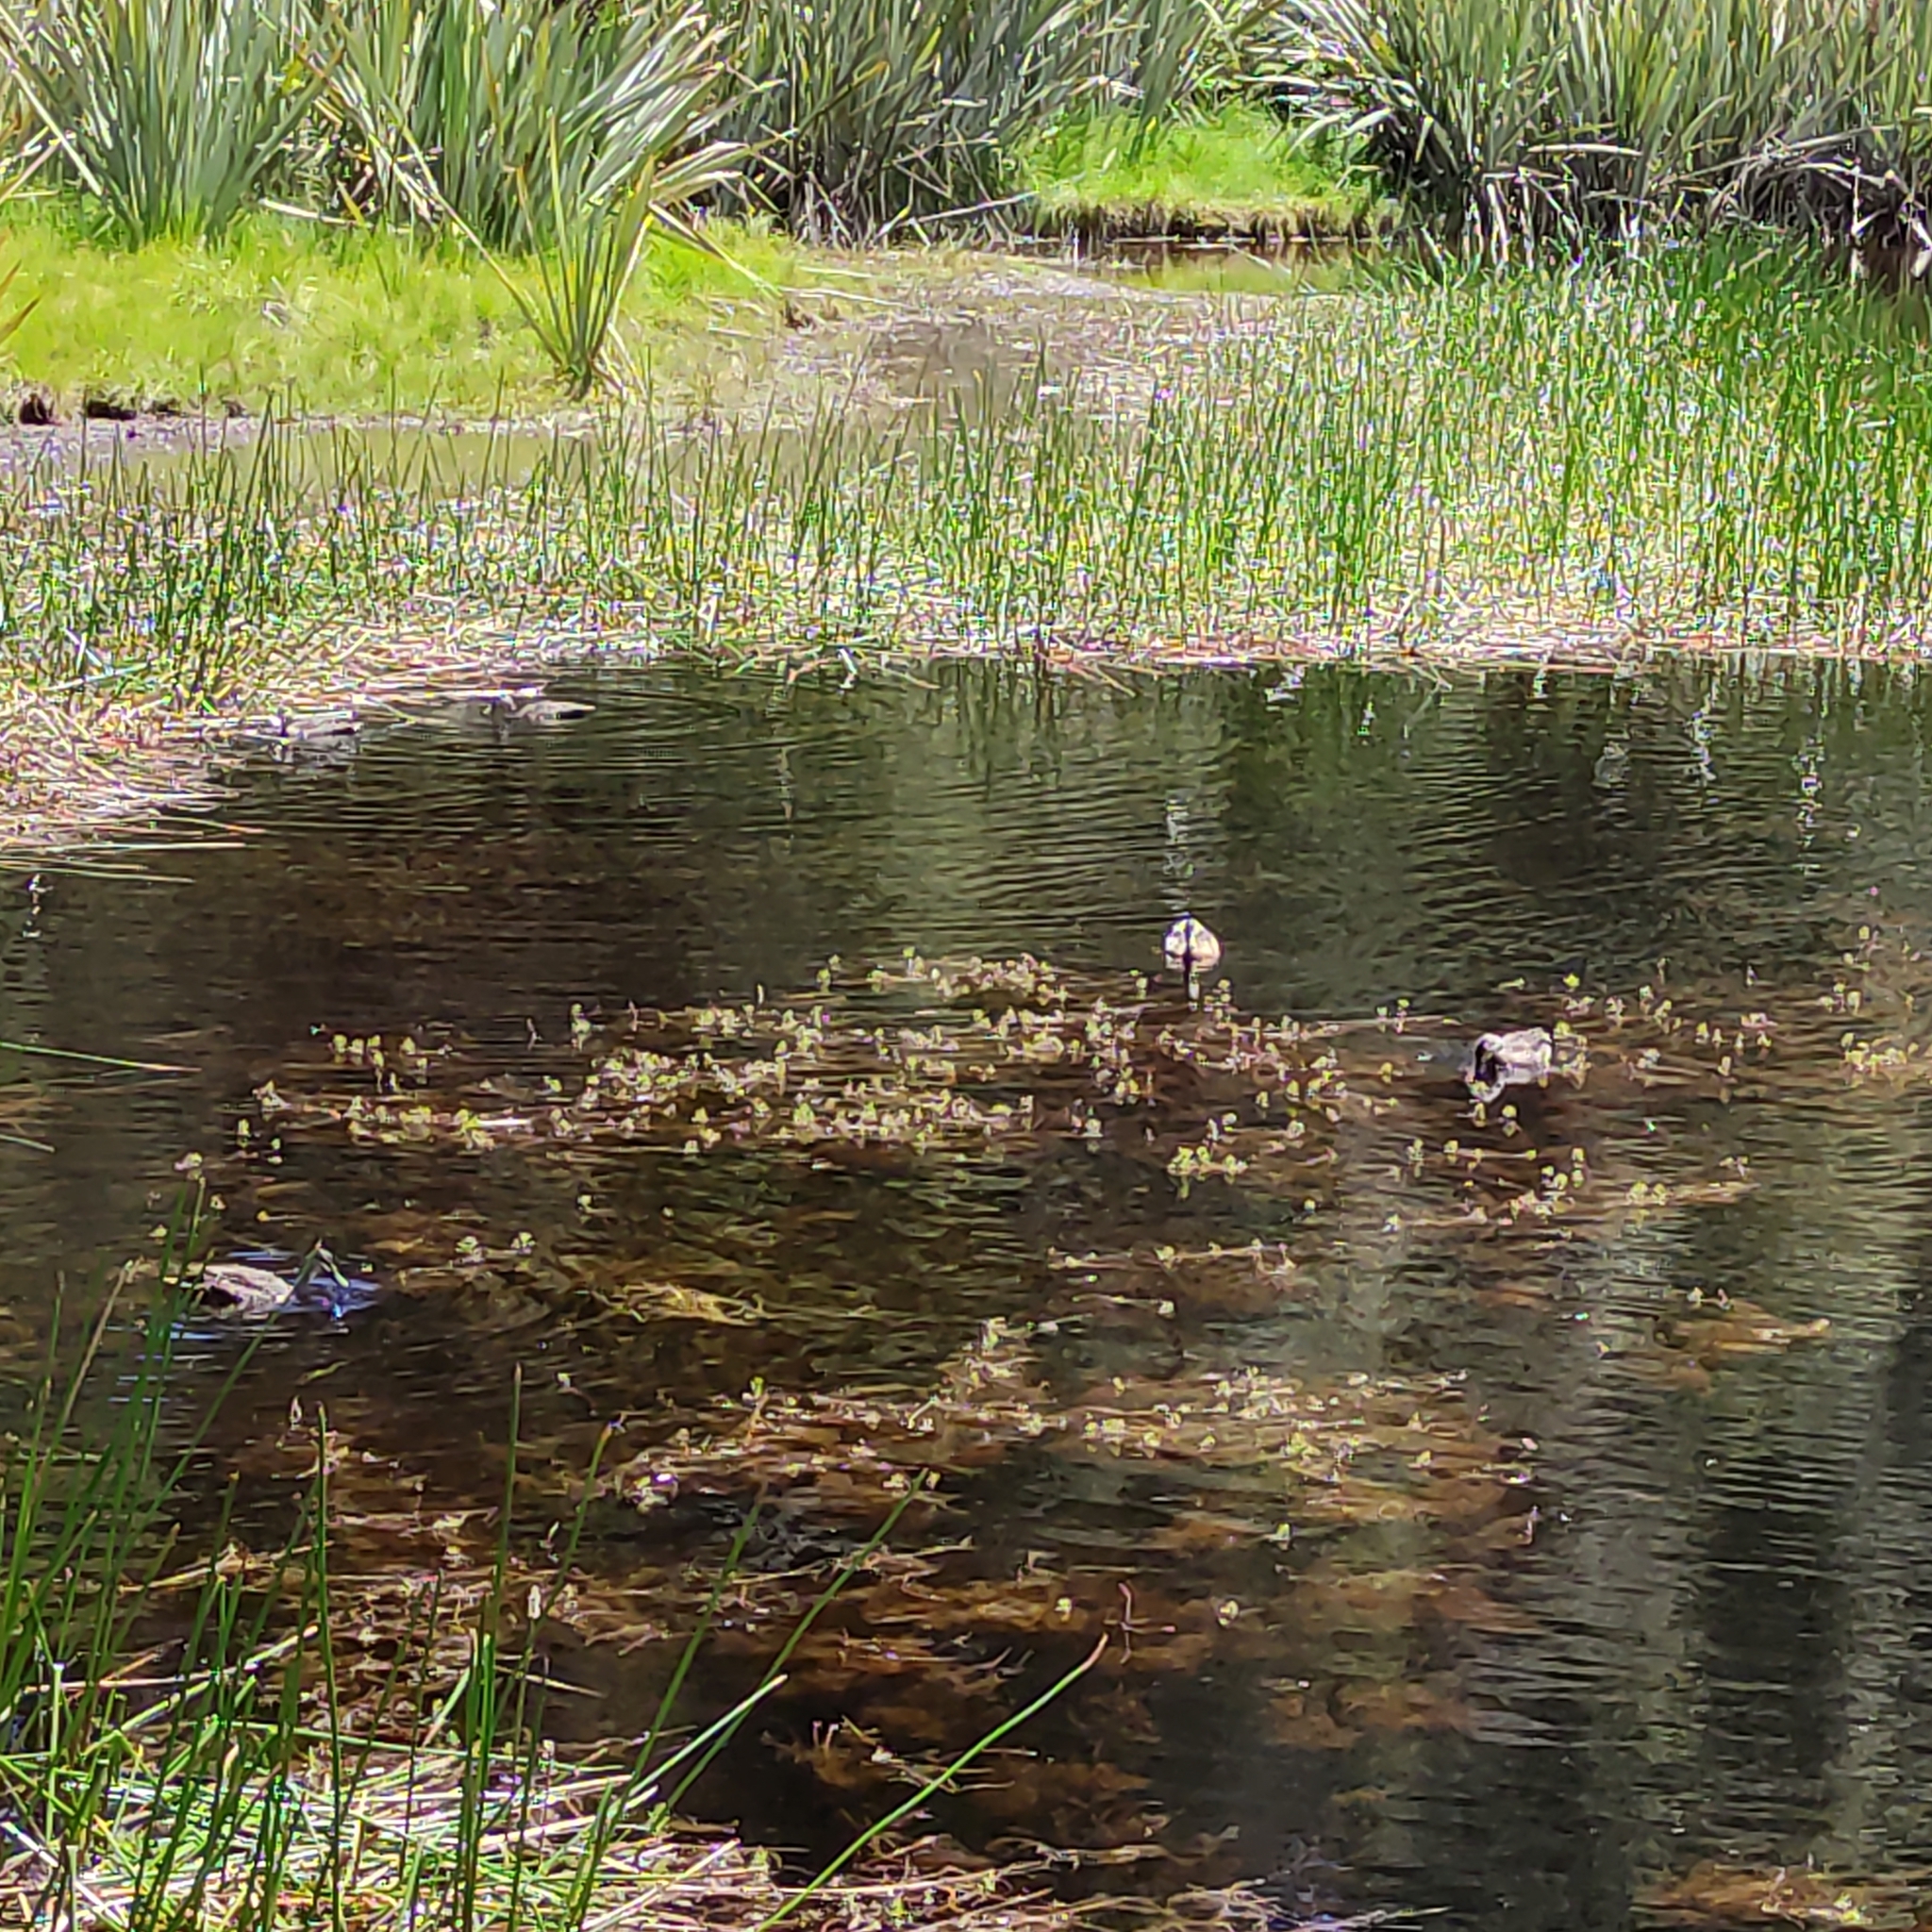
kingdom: Animalia
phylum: Chordata
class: Aves
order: Anseriformes
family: Anatidae
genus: Anas
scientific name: Anas
